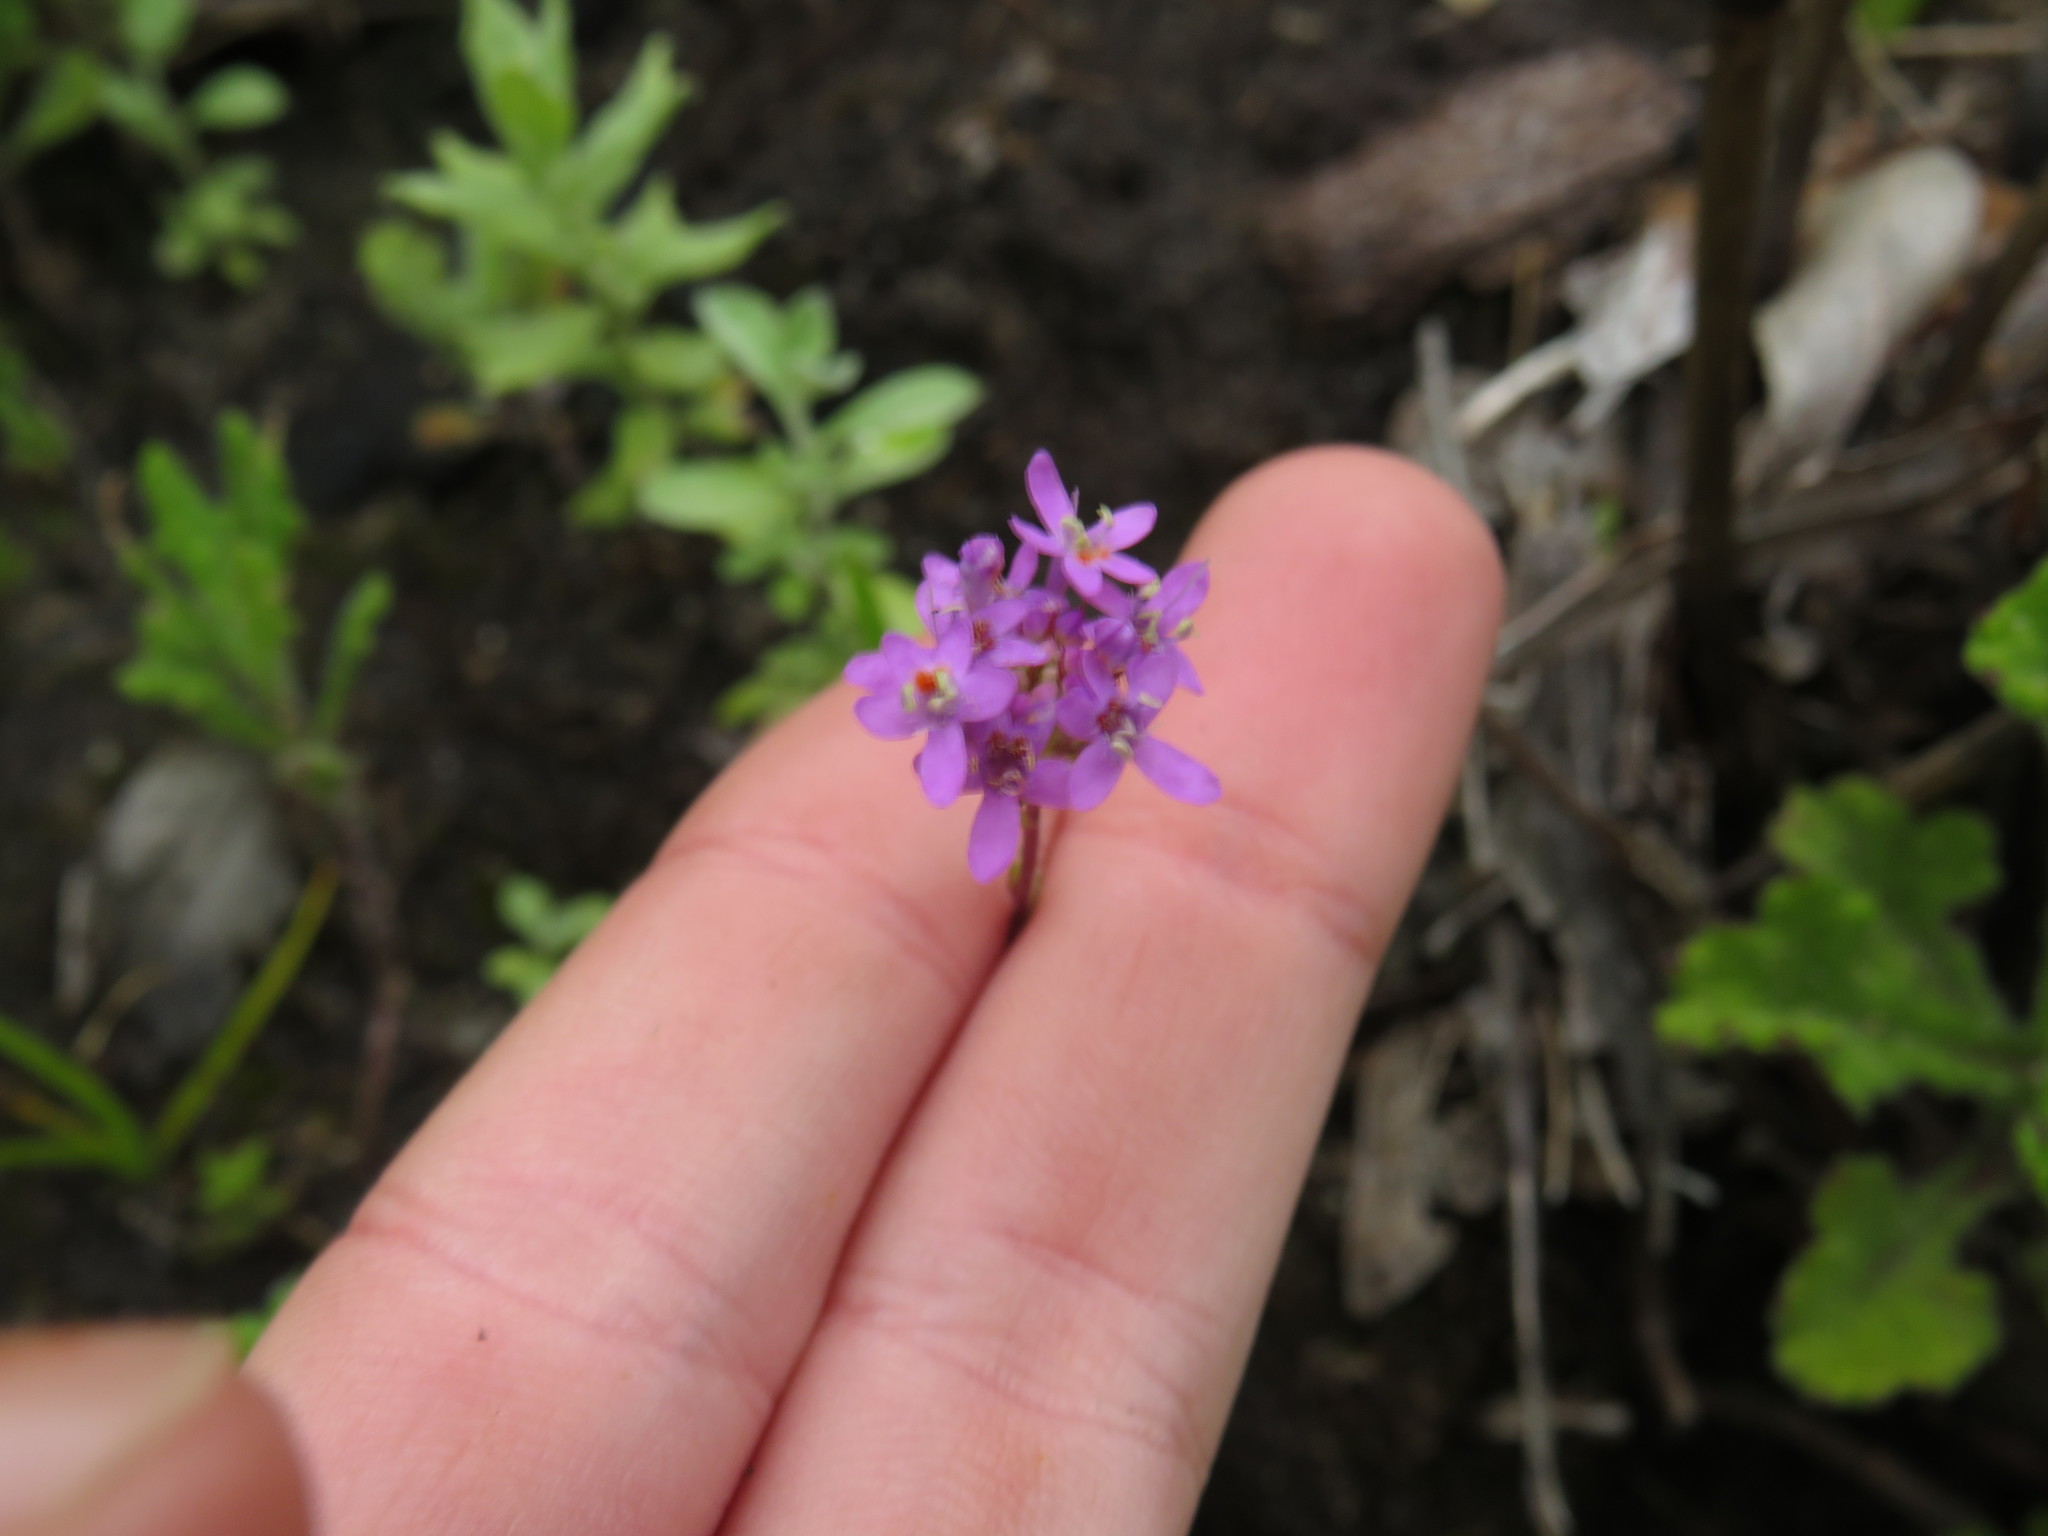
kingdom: Plantae
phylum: Tracheophyta
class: Magnoliopsida
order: Lamiales
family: Scrophulariaceae
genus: Pseudoselago
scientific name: Pseudoselago bella
